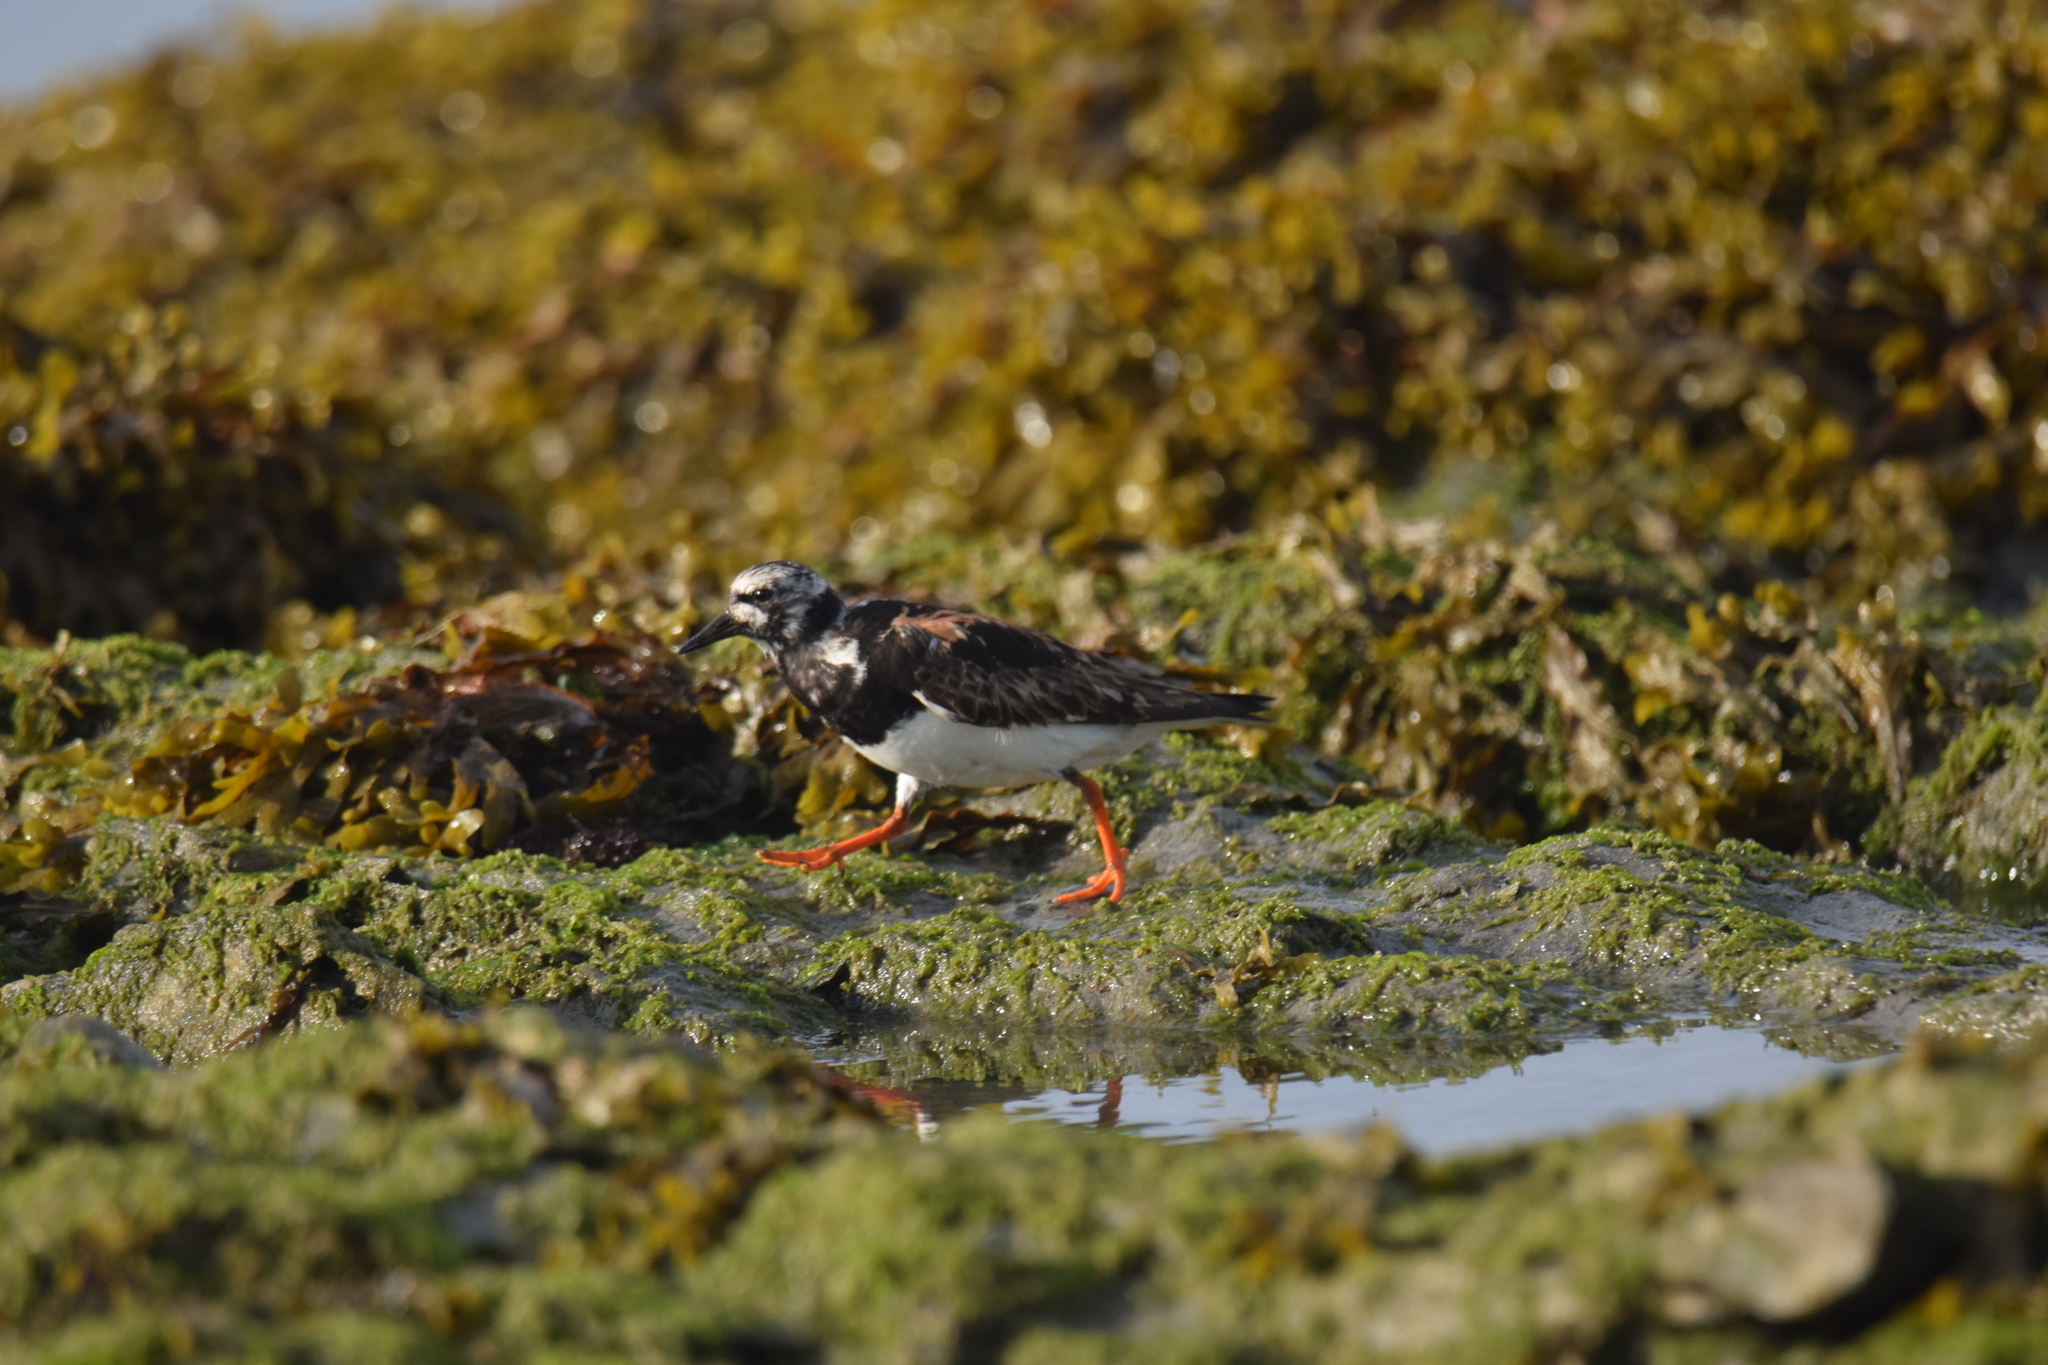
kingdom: Animalia
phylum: Chordata
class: Aves
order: Charadriiformes
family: Scolopacidae
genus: Arenaria
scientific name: Arenaria interpres
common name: Ruddy turnstone
